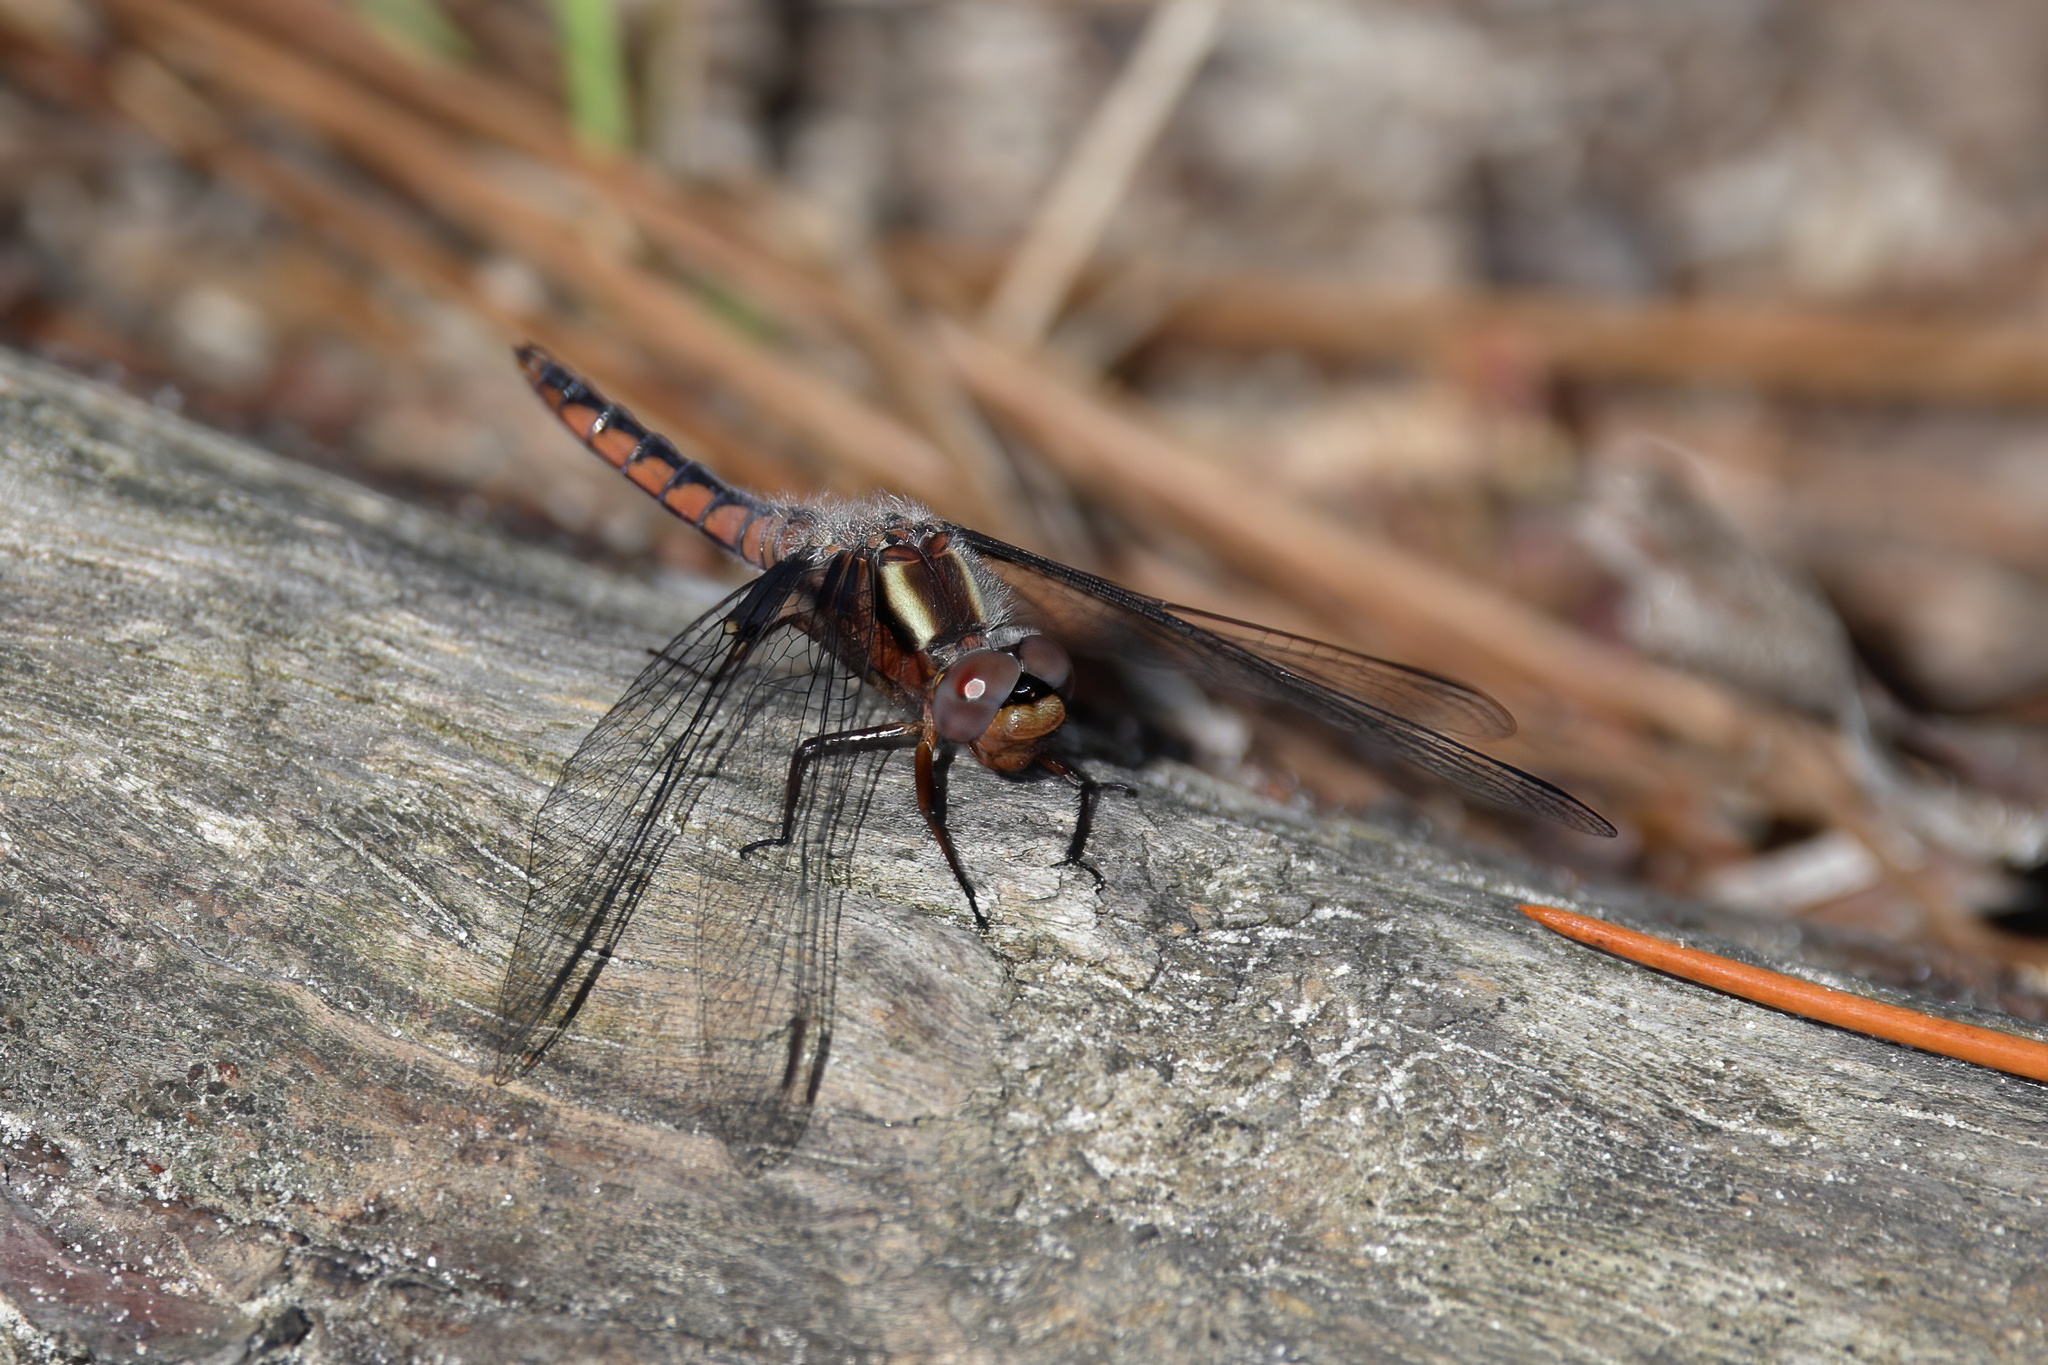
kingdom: Animalia
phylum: Arthropoda
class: Insecta
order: Odonata
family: Libellulidae
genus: Ladona
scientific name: Ladona deplanata
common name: Blue corporal
